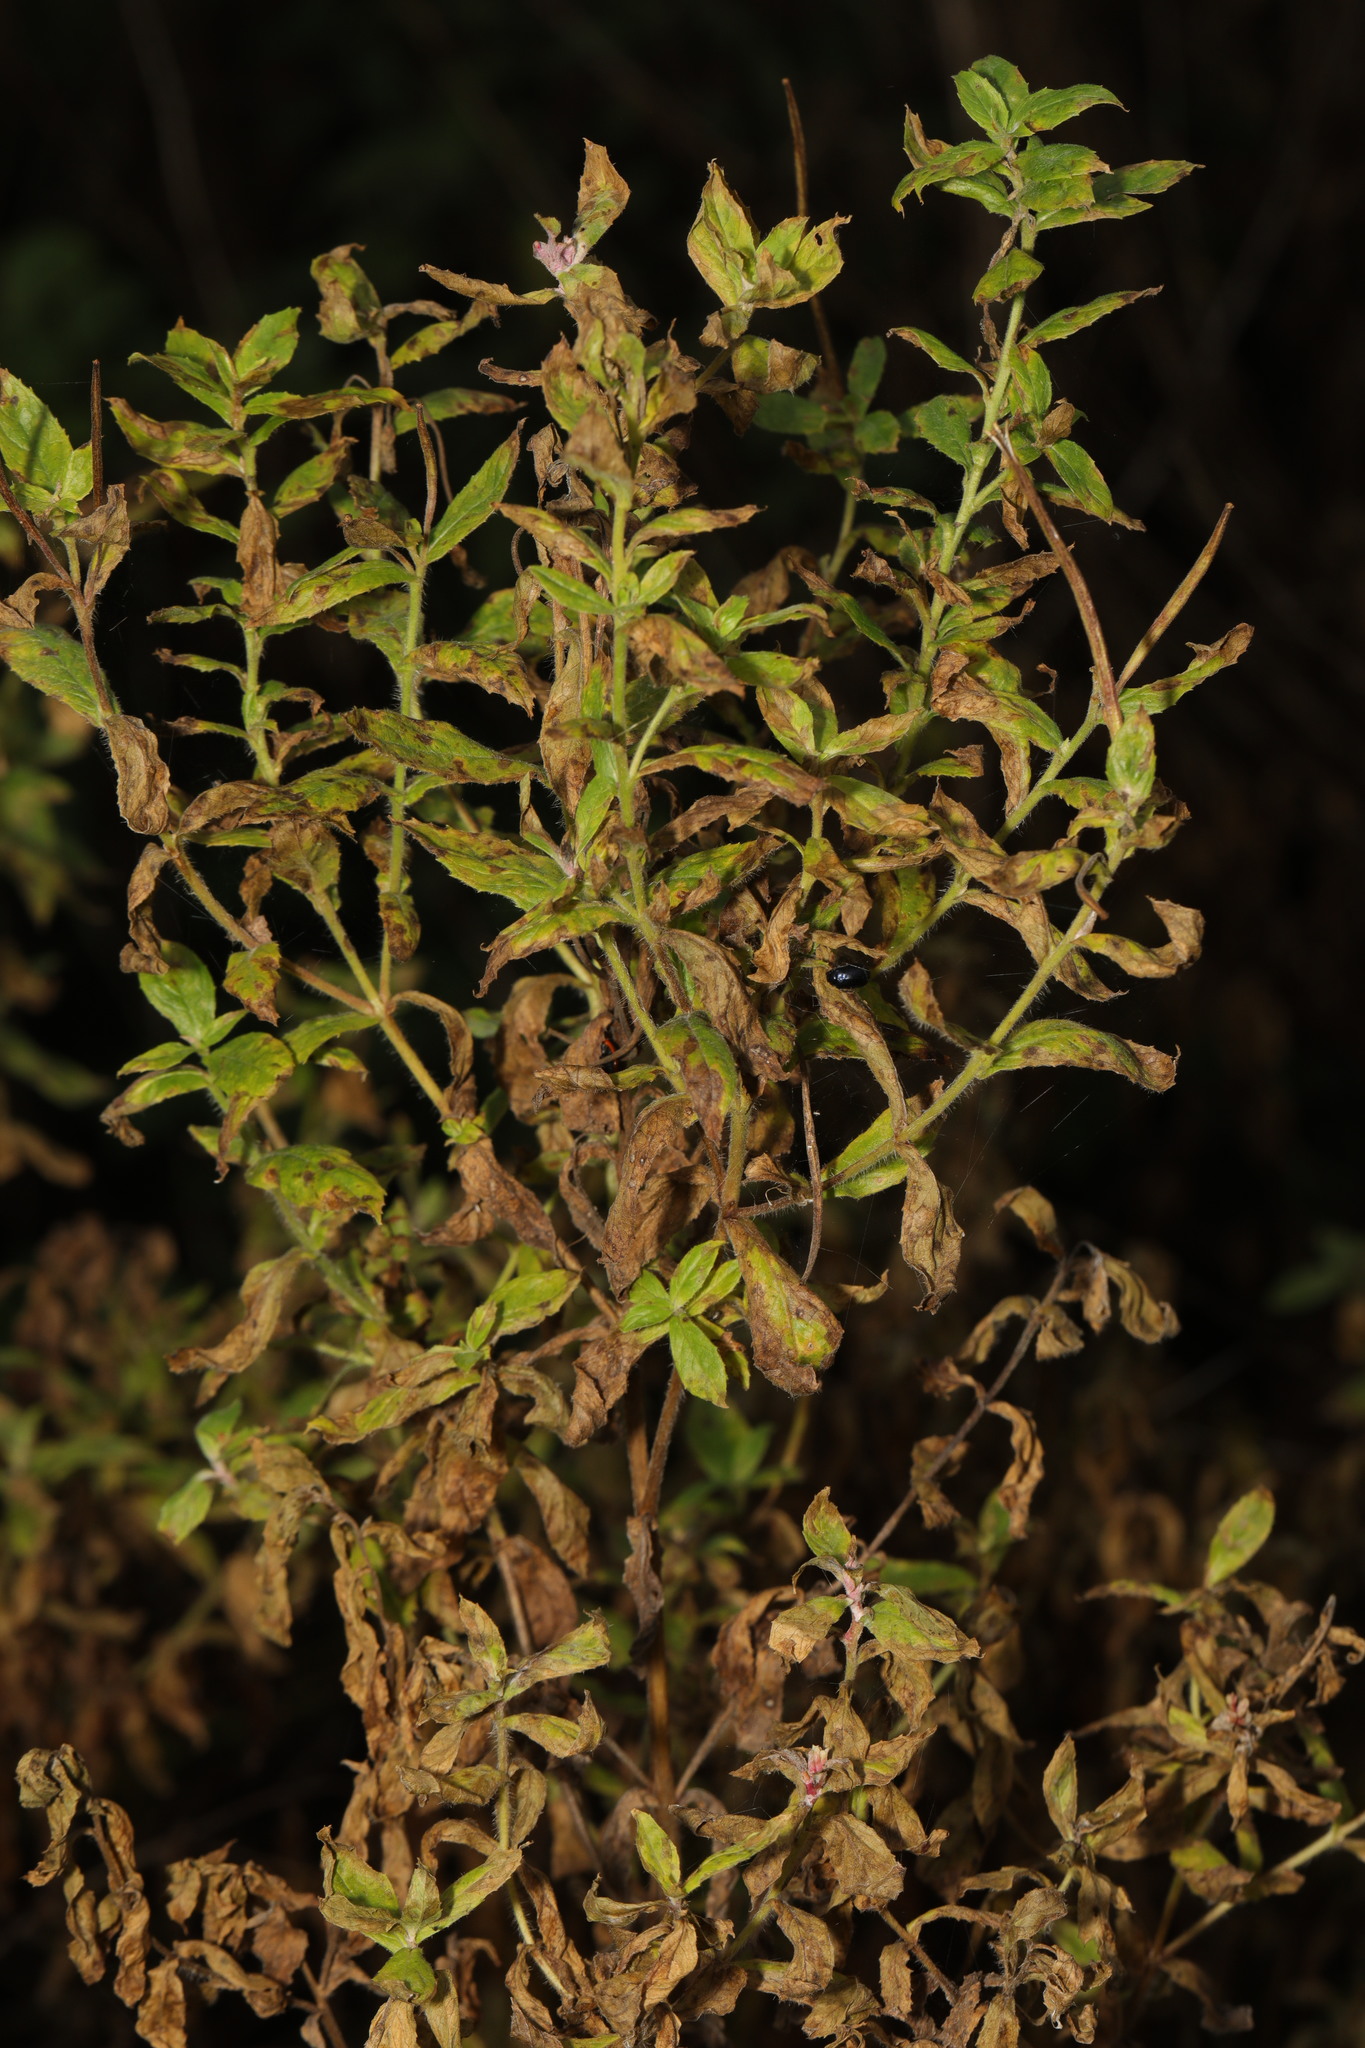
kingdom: Plantae
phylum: Tracheophyta
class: Magnoliopsida
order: Myrtales
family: Onagraceae
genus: Epilobium
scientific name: Epilobium hirsutum
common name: Great willowherb
